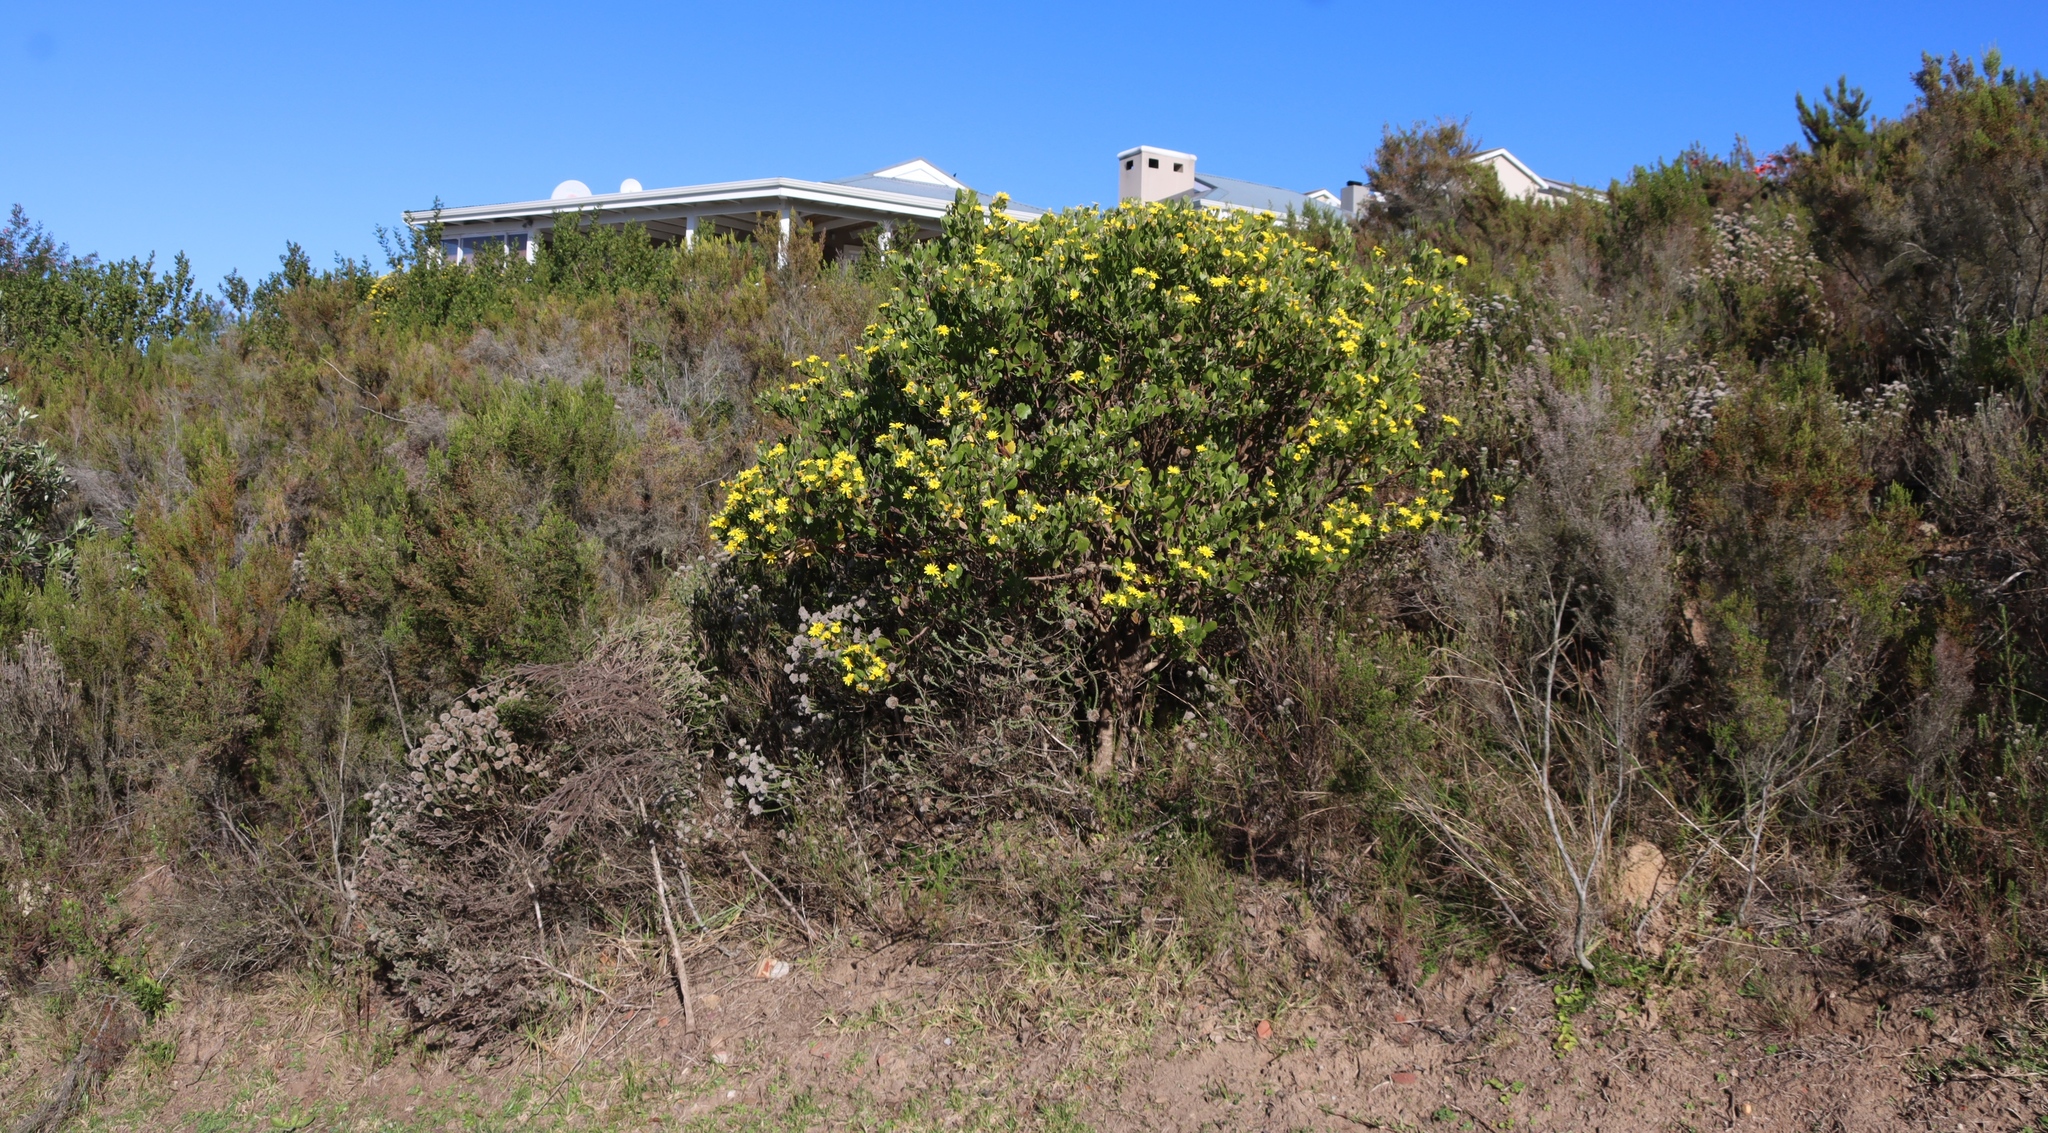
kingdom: Plantae
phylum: Tracheophyta
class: Magnoliopsida
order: Asterales
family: Asteraceae
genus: Osteospermum
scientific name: Osteospermum moniliferum
